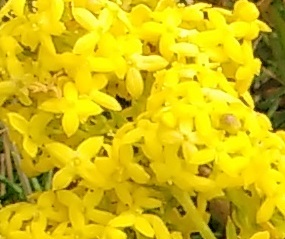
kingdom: Plantae
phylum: Tracheophyta
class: Magnoliopsida
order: Gentianales
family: Rubiaceae
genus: Galium
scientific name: Galium verum
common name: Lady's bedstraw
